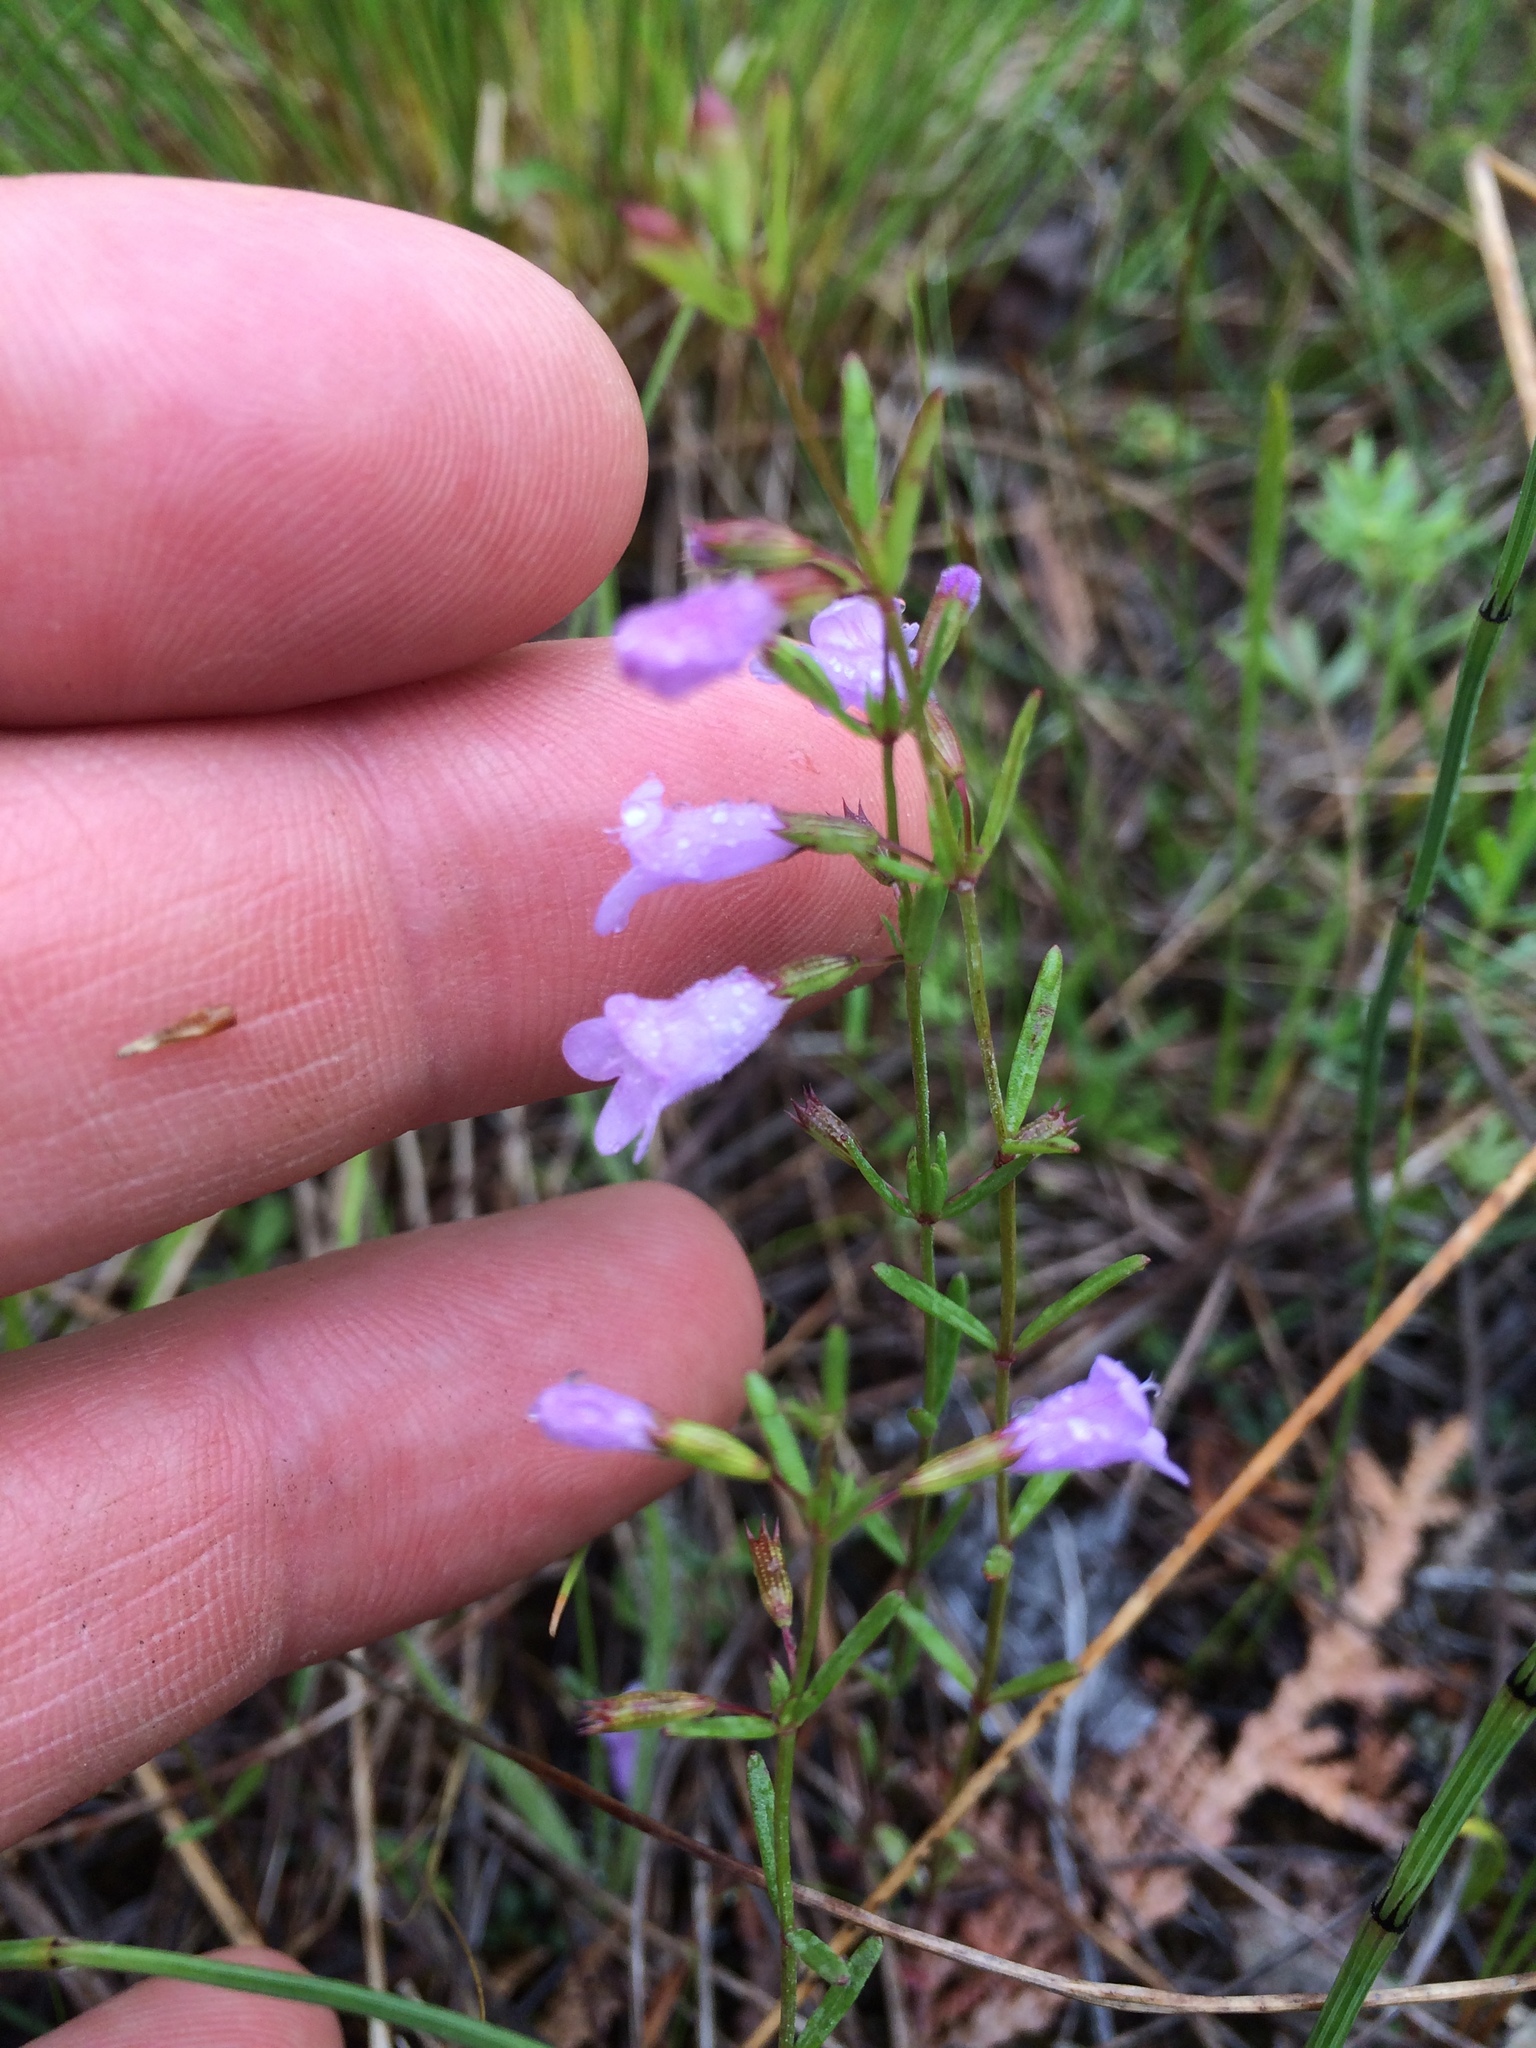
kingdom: Plantae
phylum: Tracheophyta
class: Magnoliopsida
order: Lamiales
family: Lamiaceae
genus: Clinopodium
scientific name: Clinopodium arkansanum
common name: Limestone calamint
